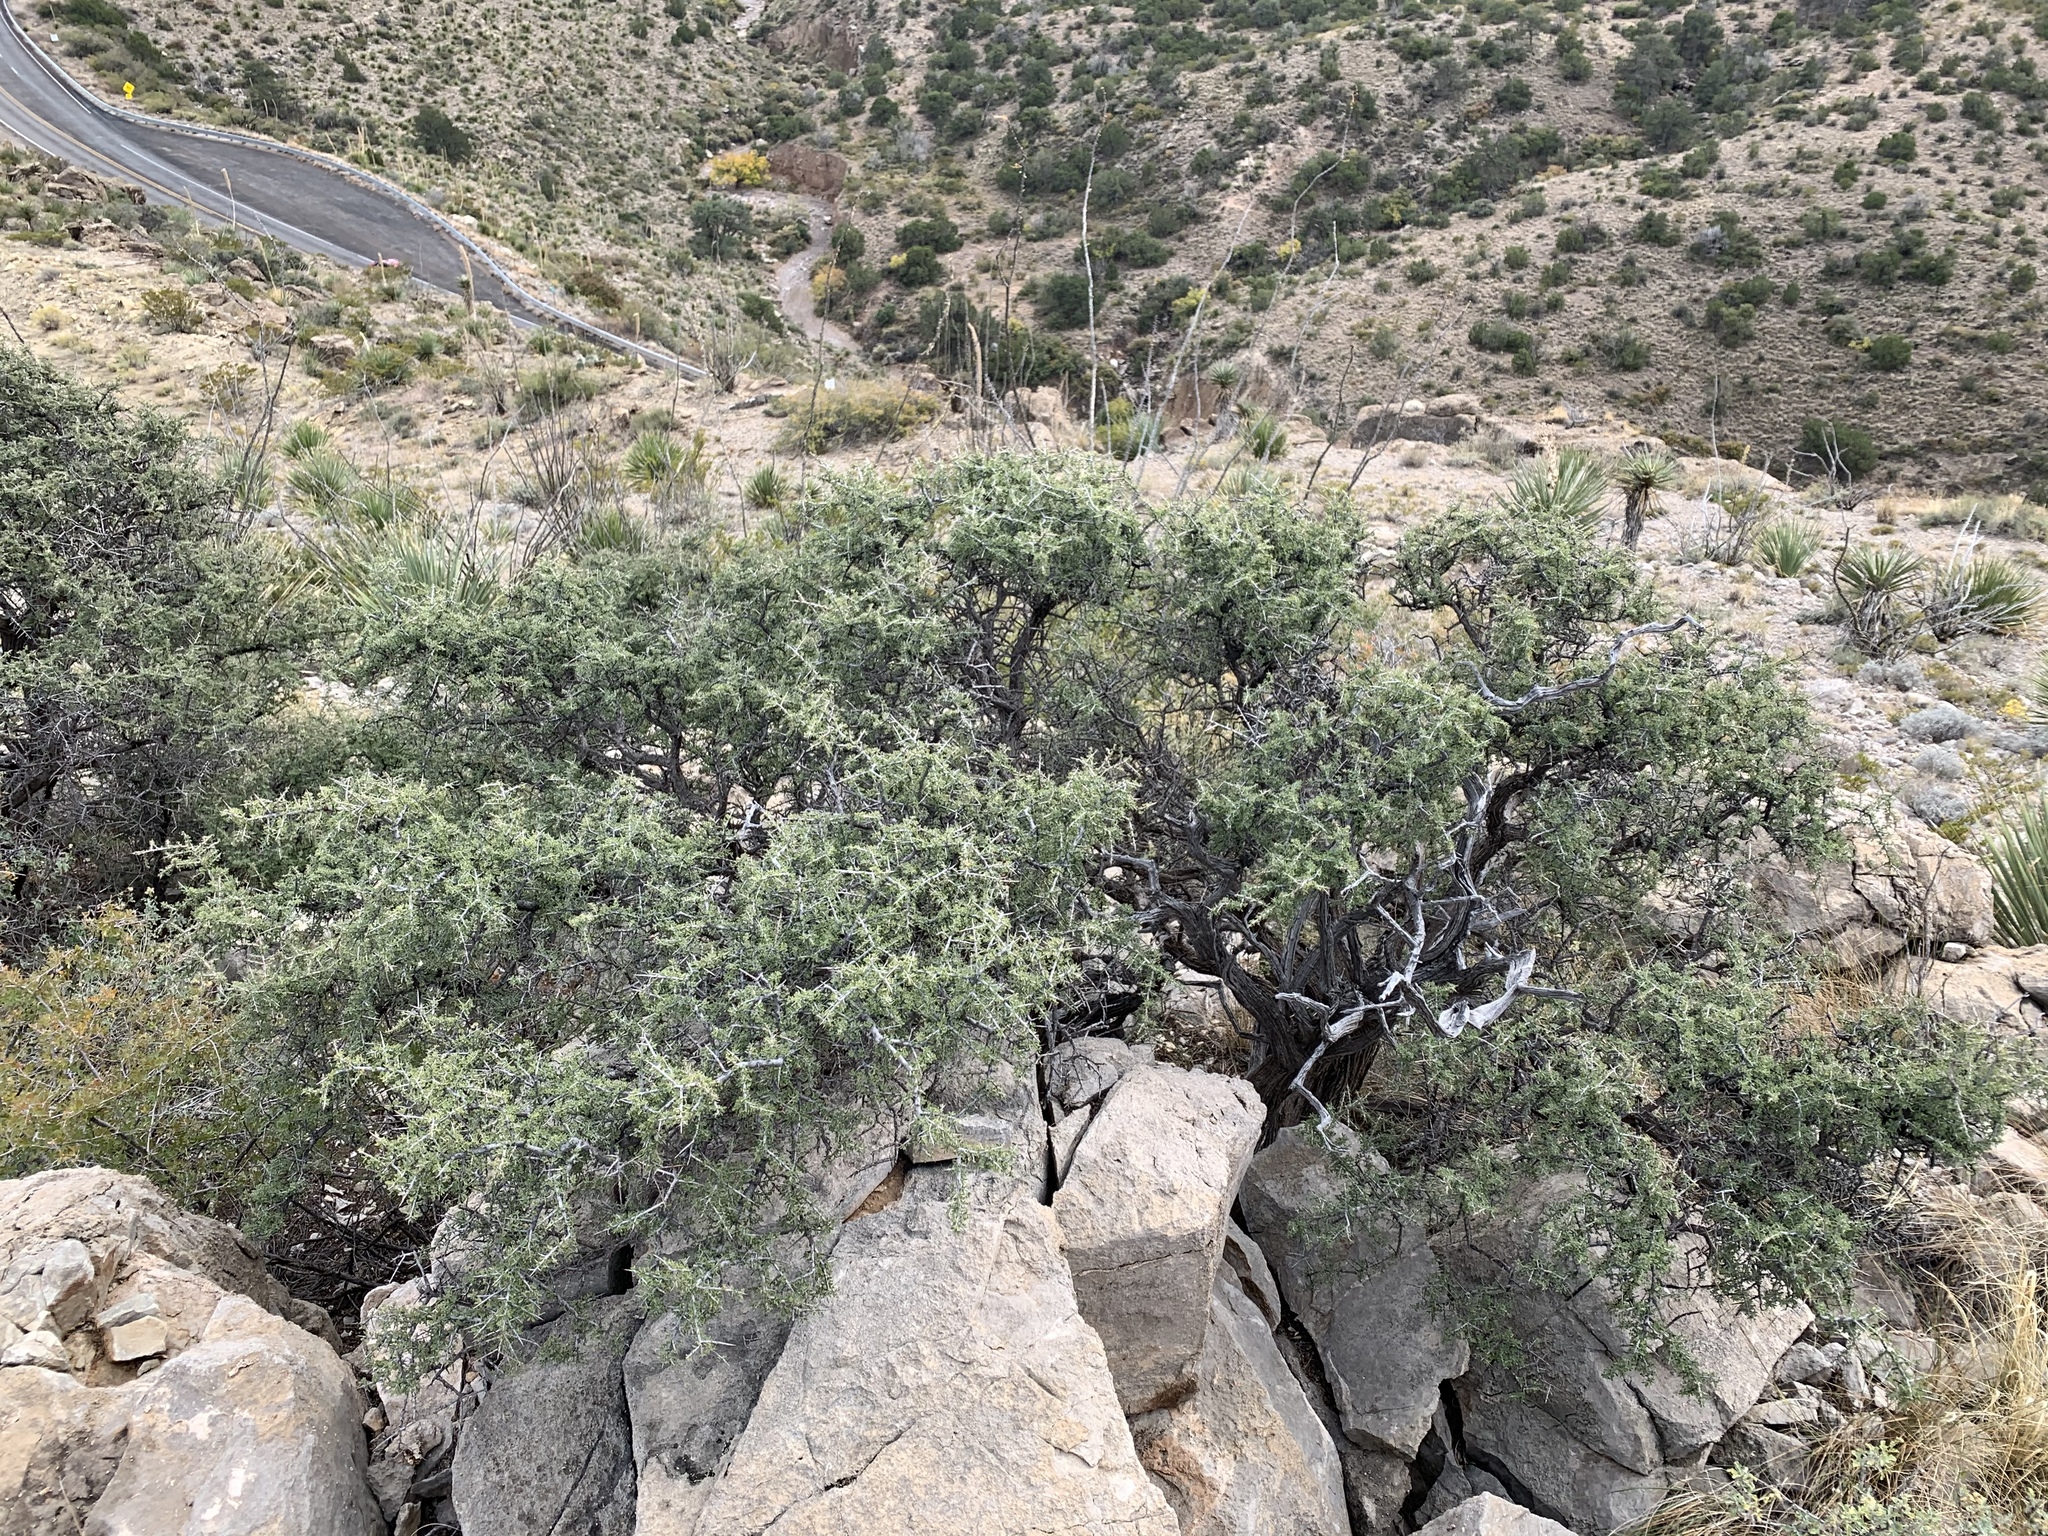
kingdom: Plantae
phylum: Tracheophyta
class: Magnoliopsida
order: Rosales
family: Rhamnaceae
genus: Condalia
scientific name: Condalia warnockii
